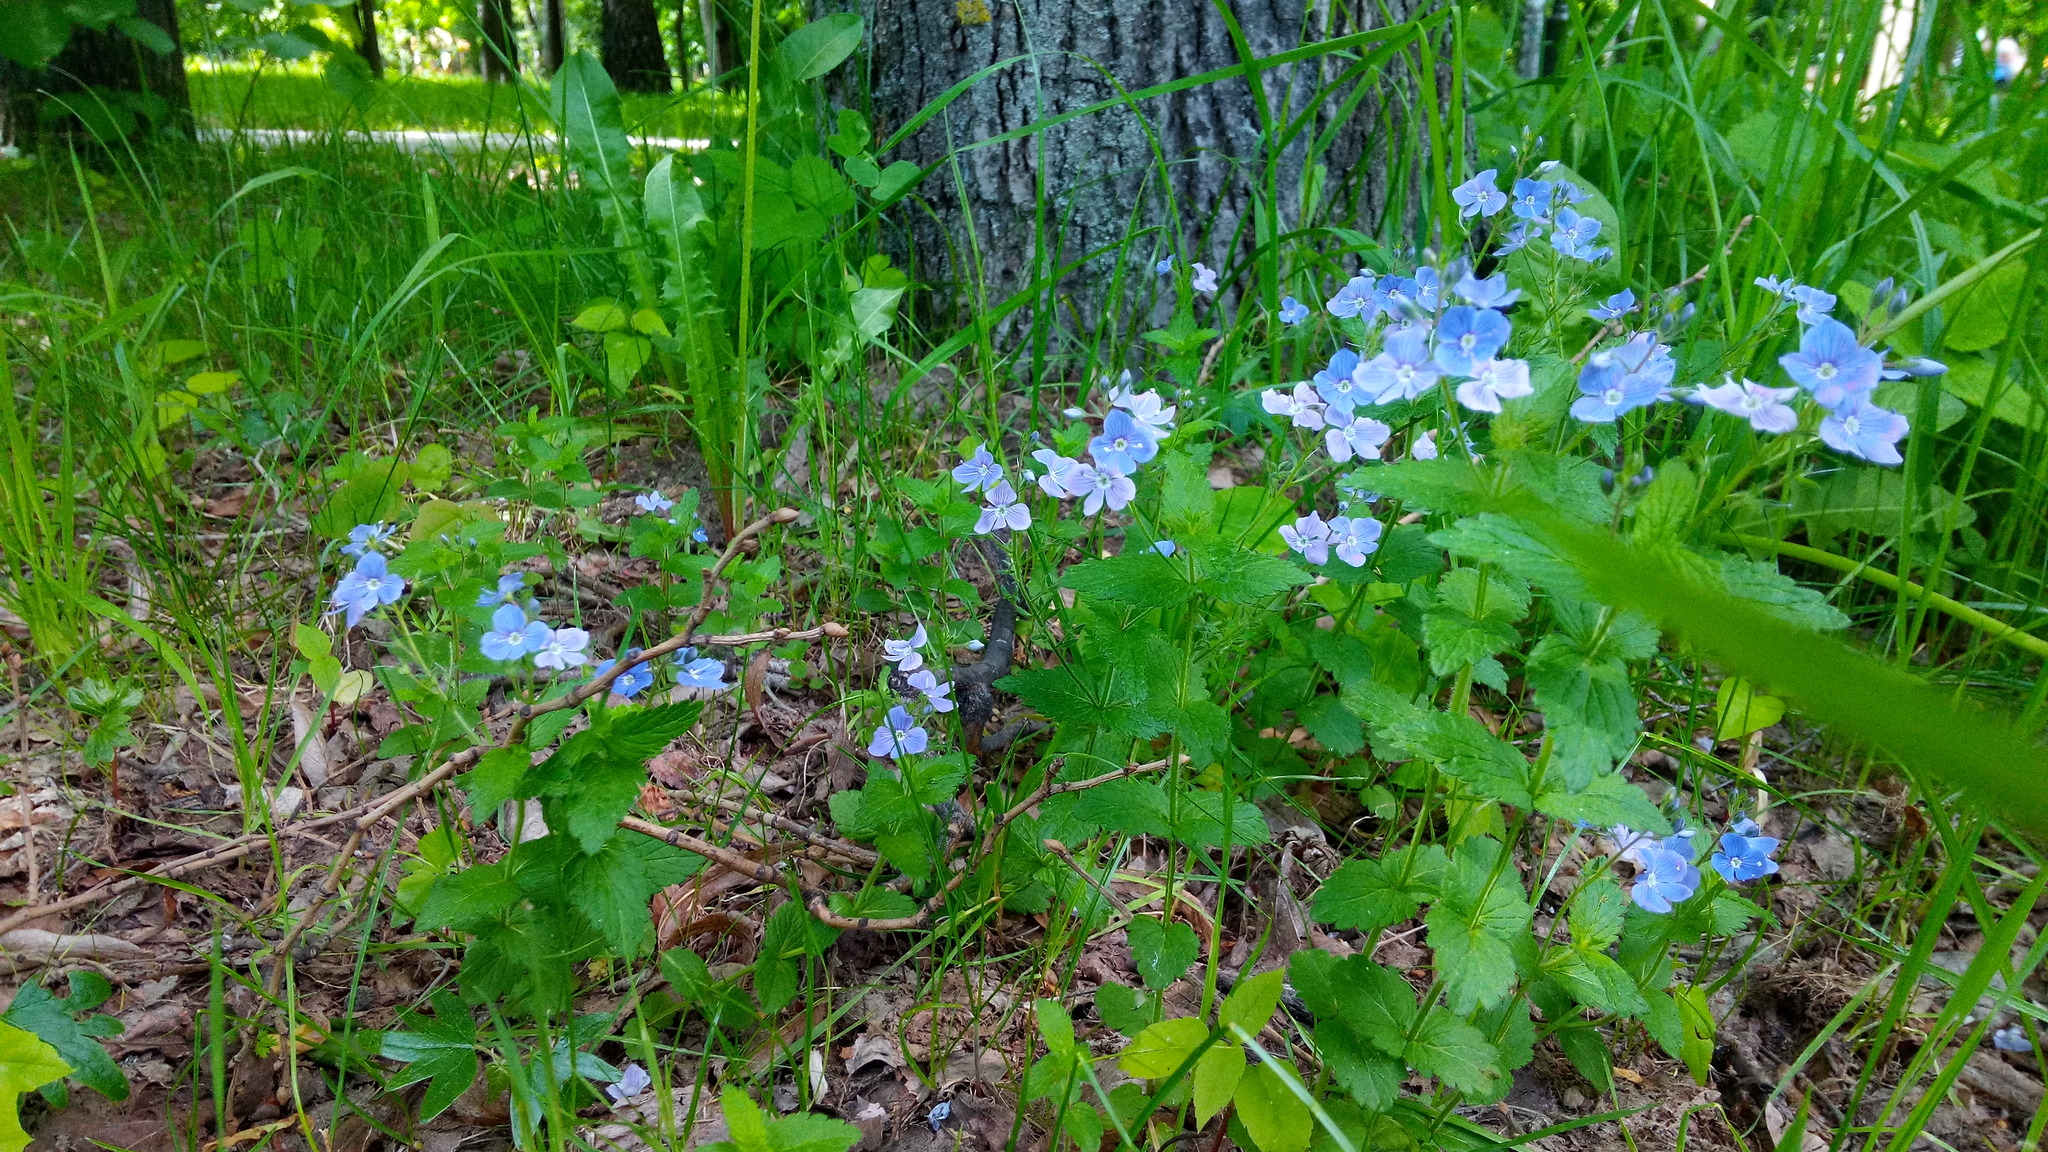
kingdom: Plantae
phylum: Tracheophyta
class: Magnoliopsida
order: Lamiales
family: Plantaginaceae
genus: Veronica
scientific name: Veronica chamaedrys
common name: Germander speedwell
